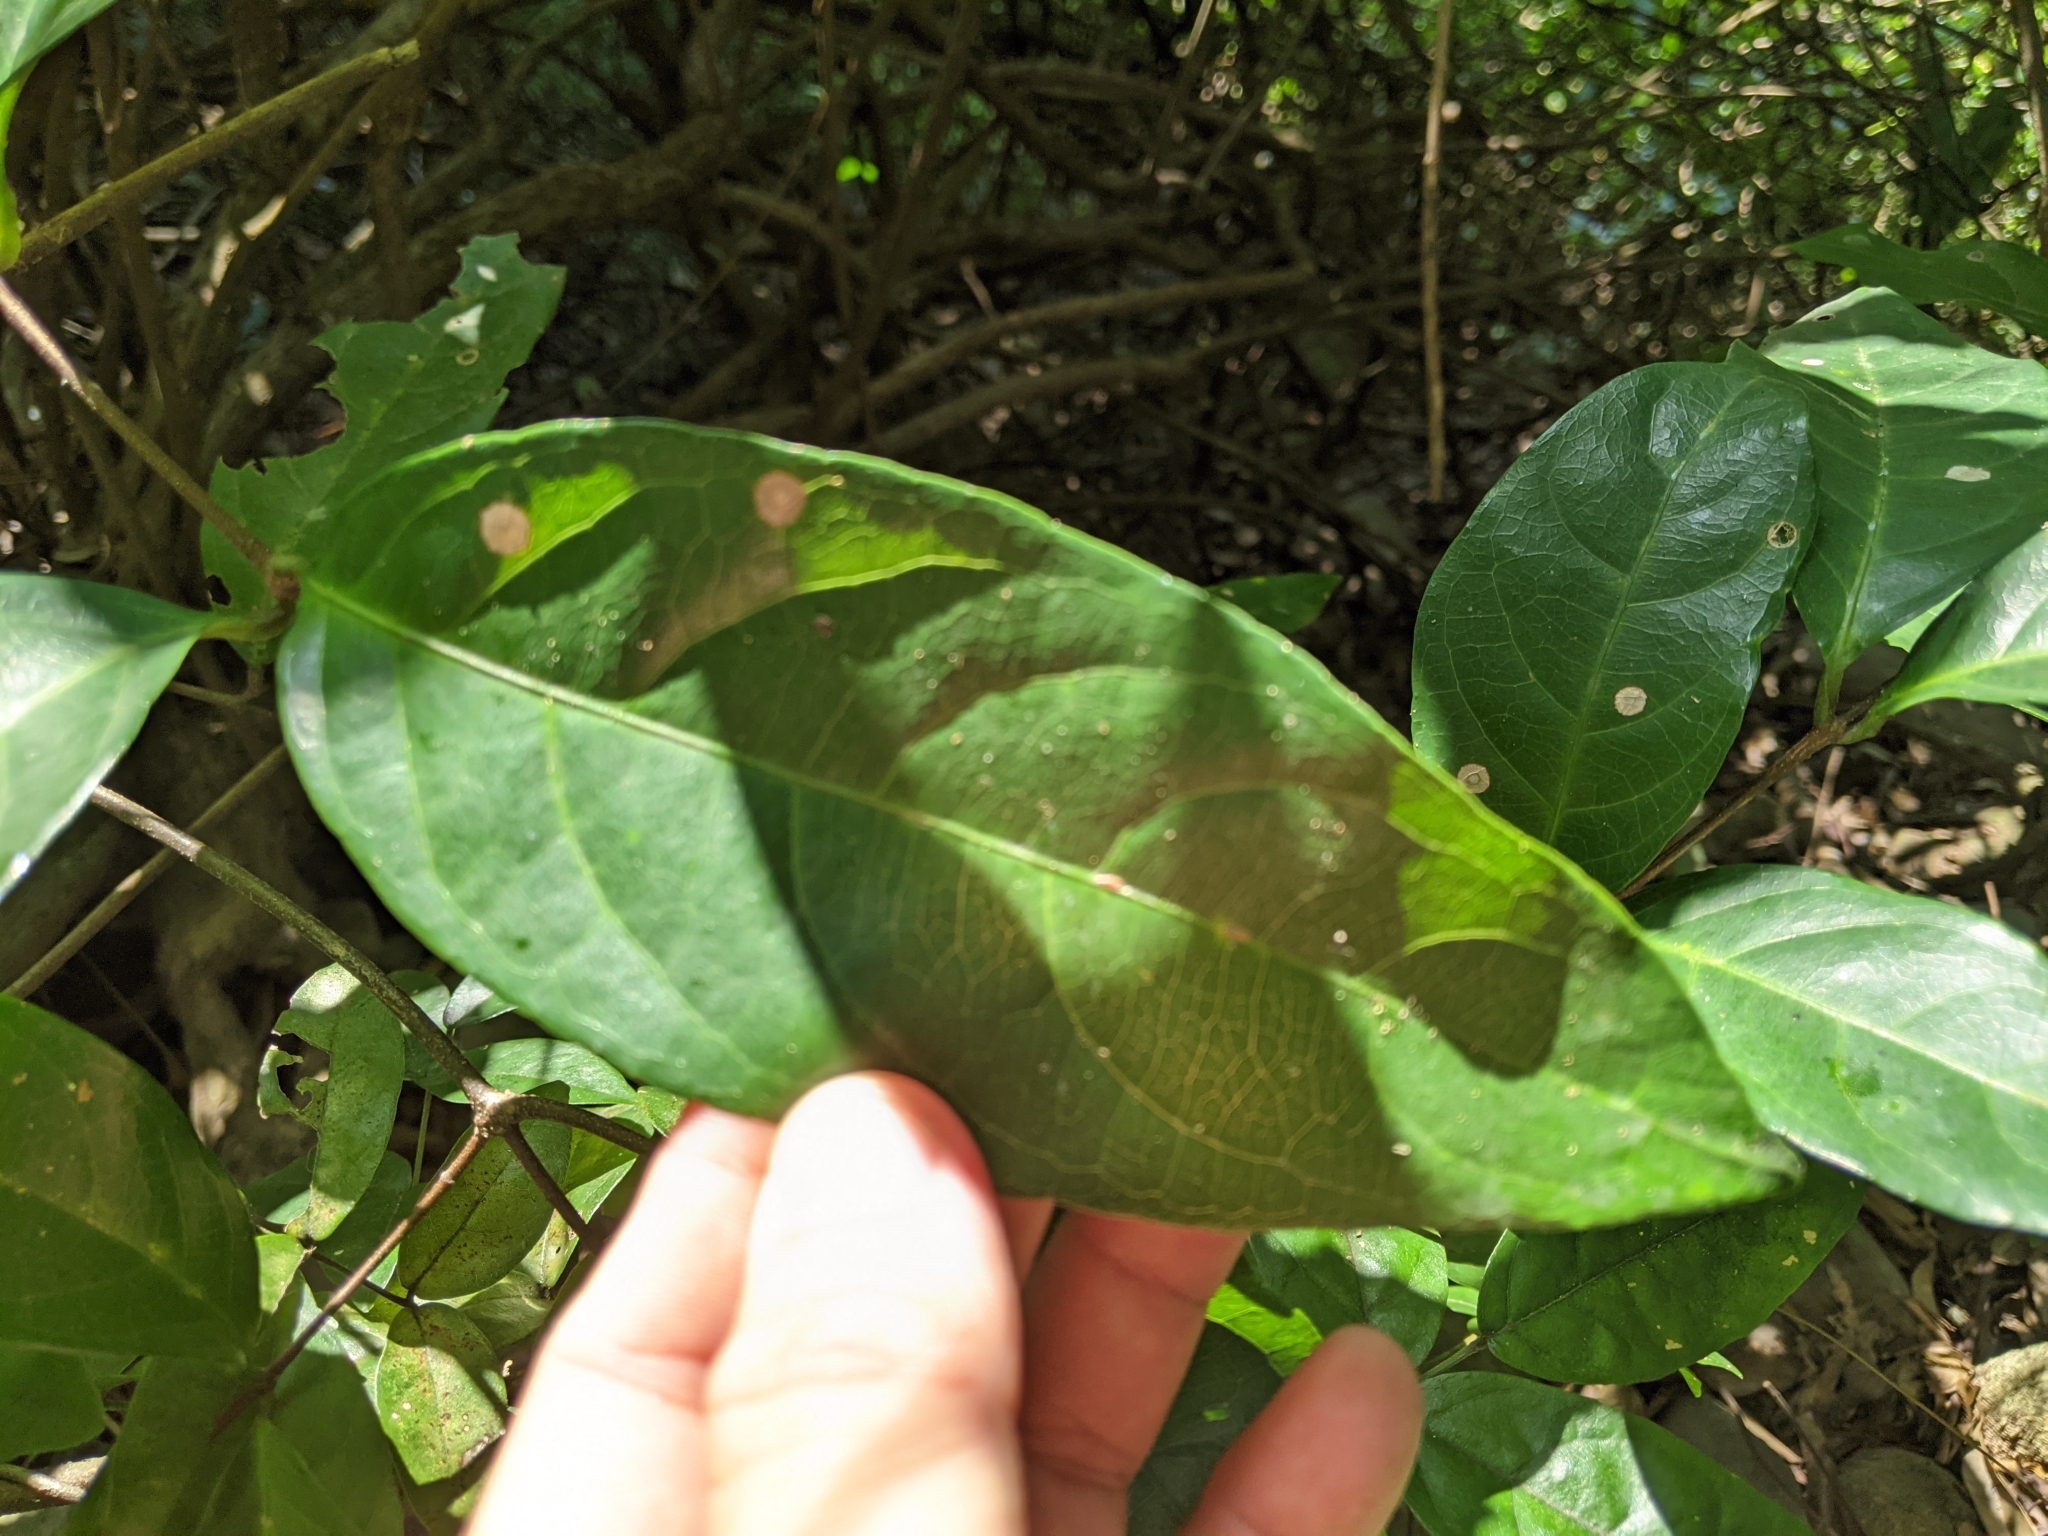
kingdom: Plantae
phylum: Tracheophyta
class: Magnoliopsida
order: Malpighiales
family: Malpighiaceae
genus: Hiptage
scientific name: Hiptage benghalensis
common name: Hiptage
